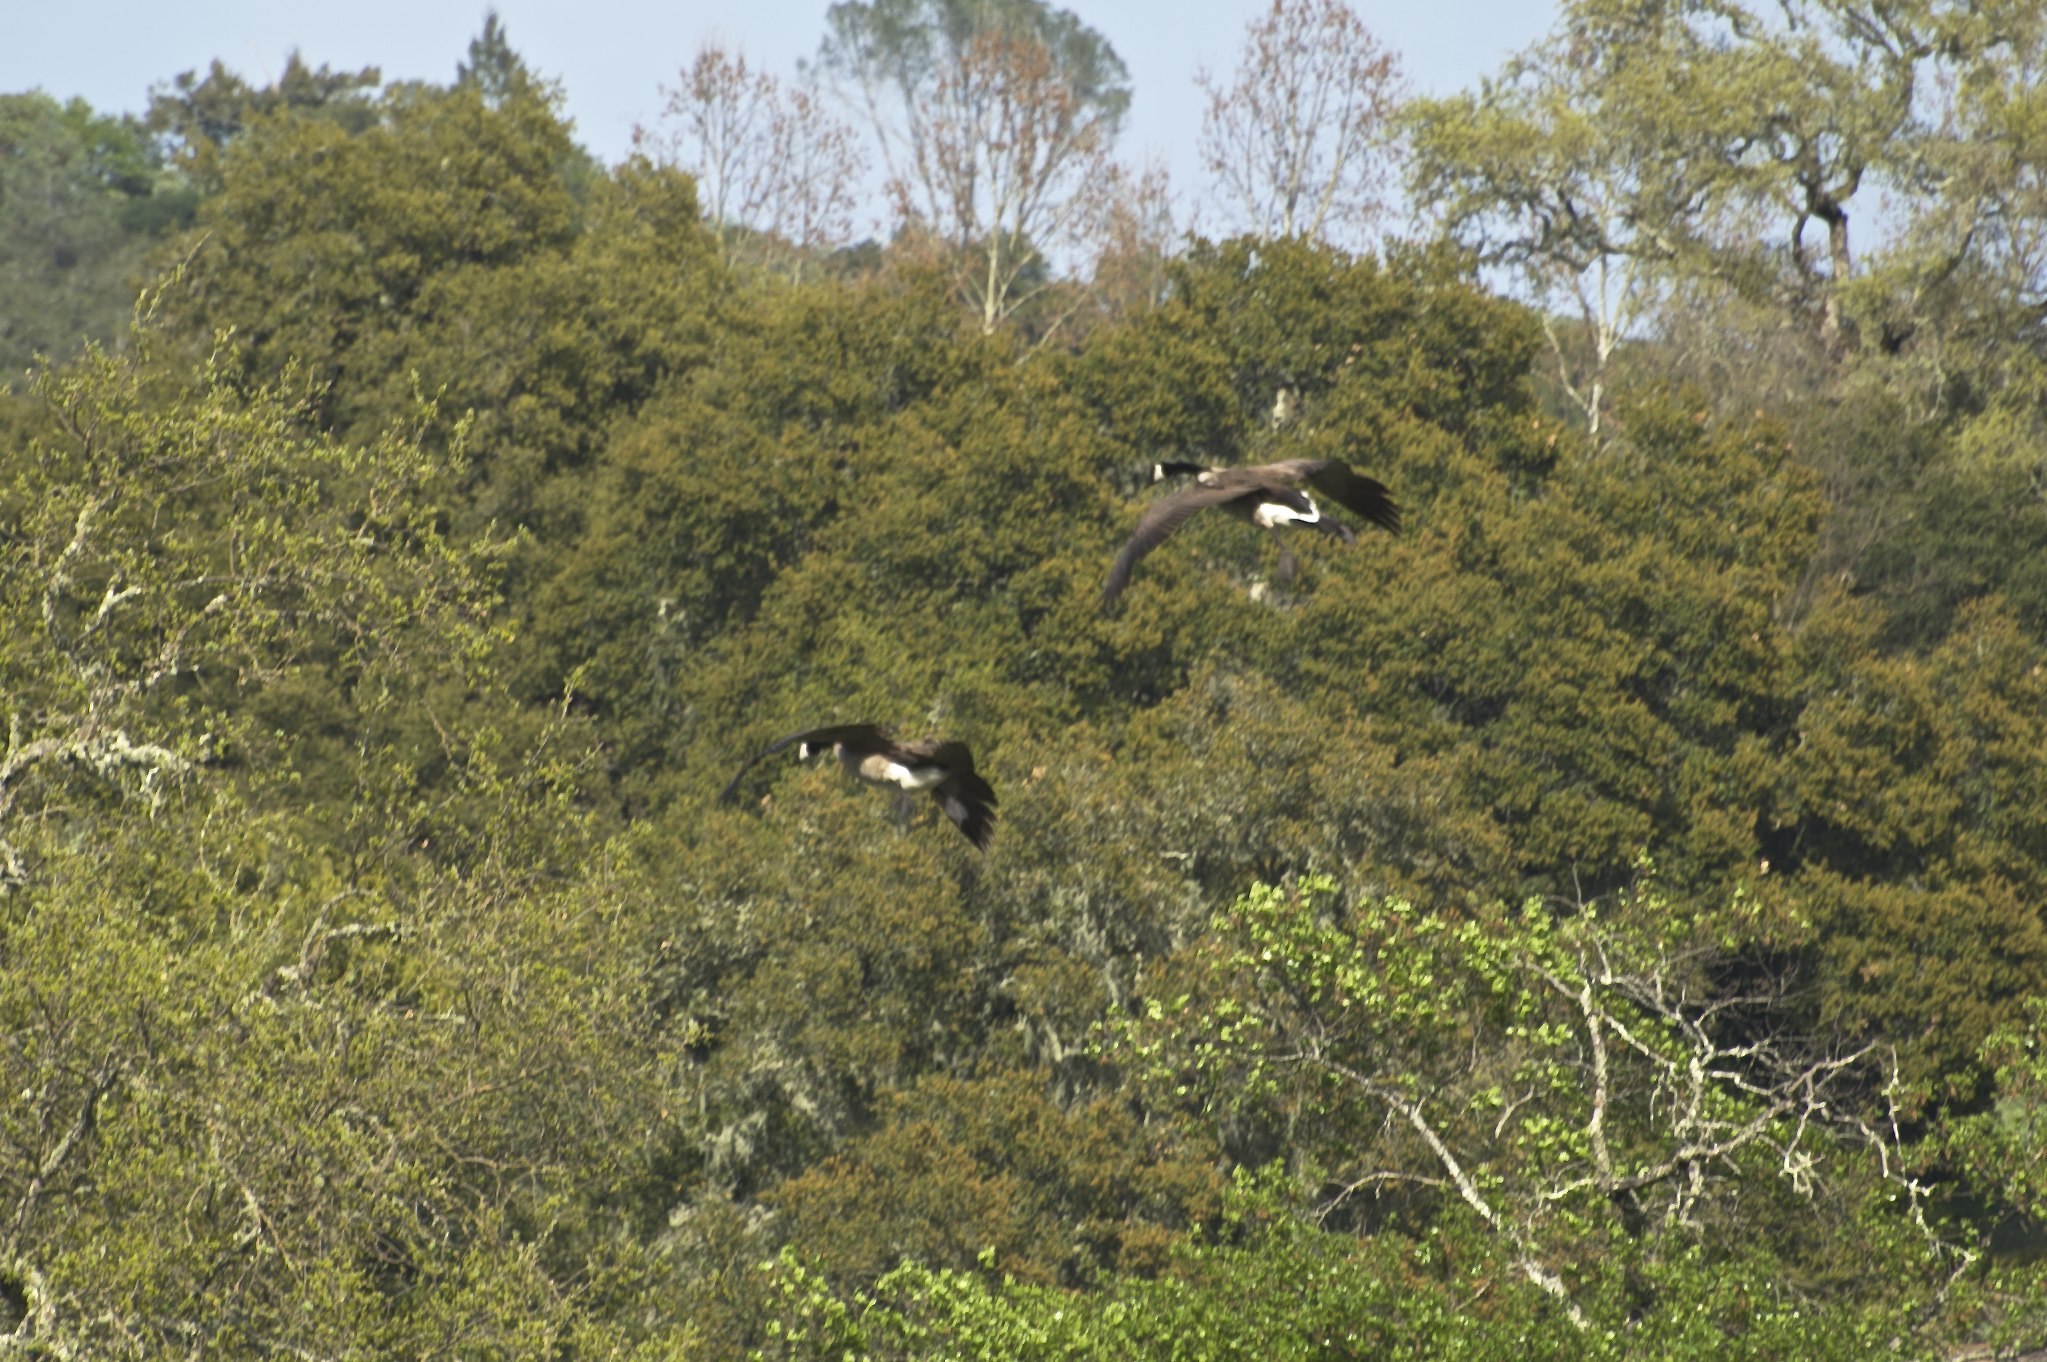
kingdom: Animalia
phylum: Chordata
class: Aves
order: Anseriformes
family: Anatidae
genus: Branta
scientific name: Branta canadensis
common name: Canada goose
